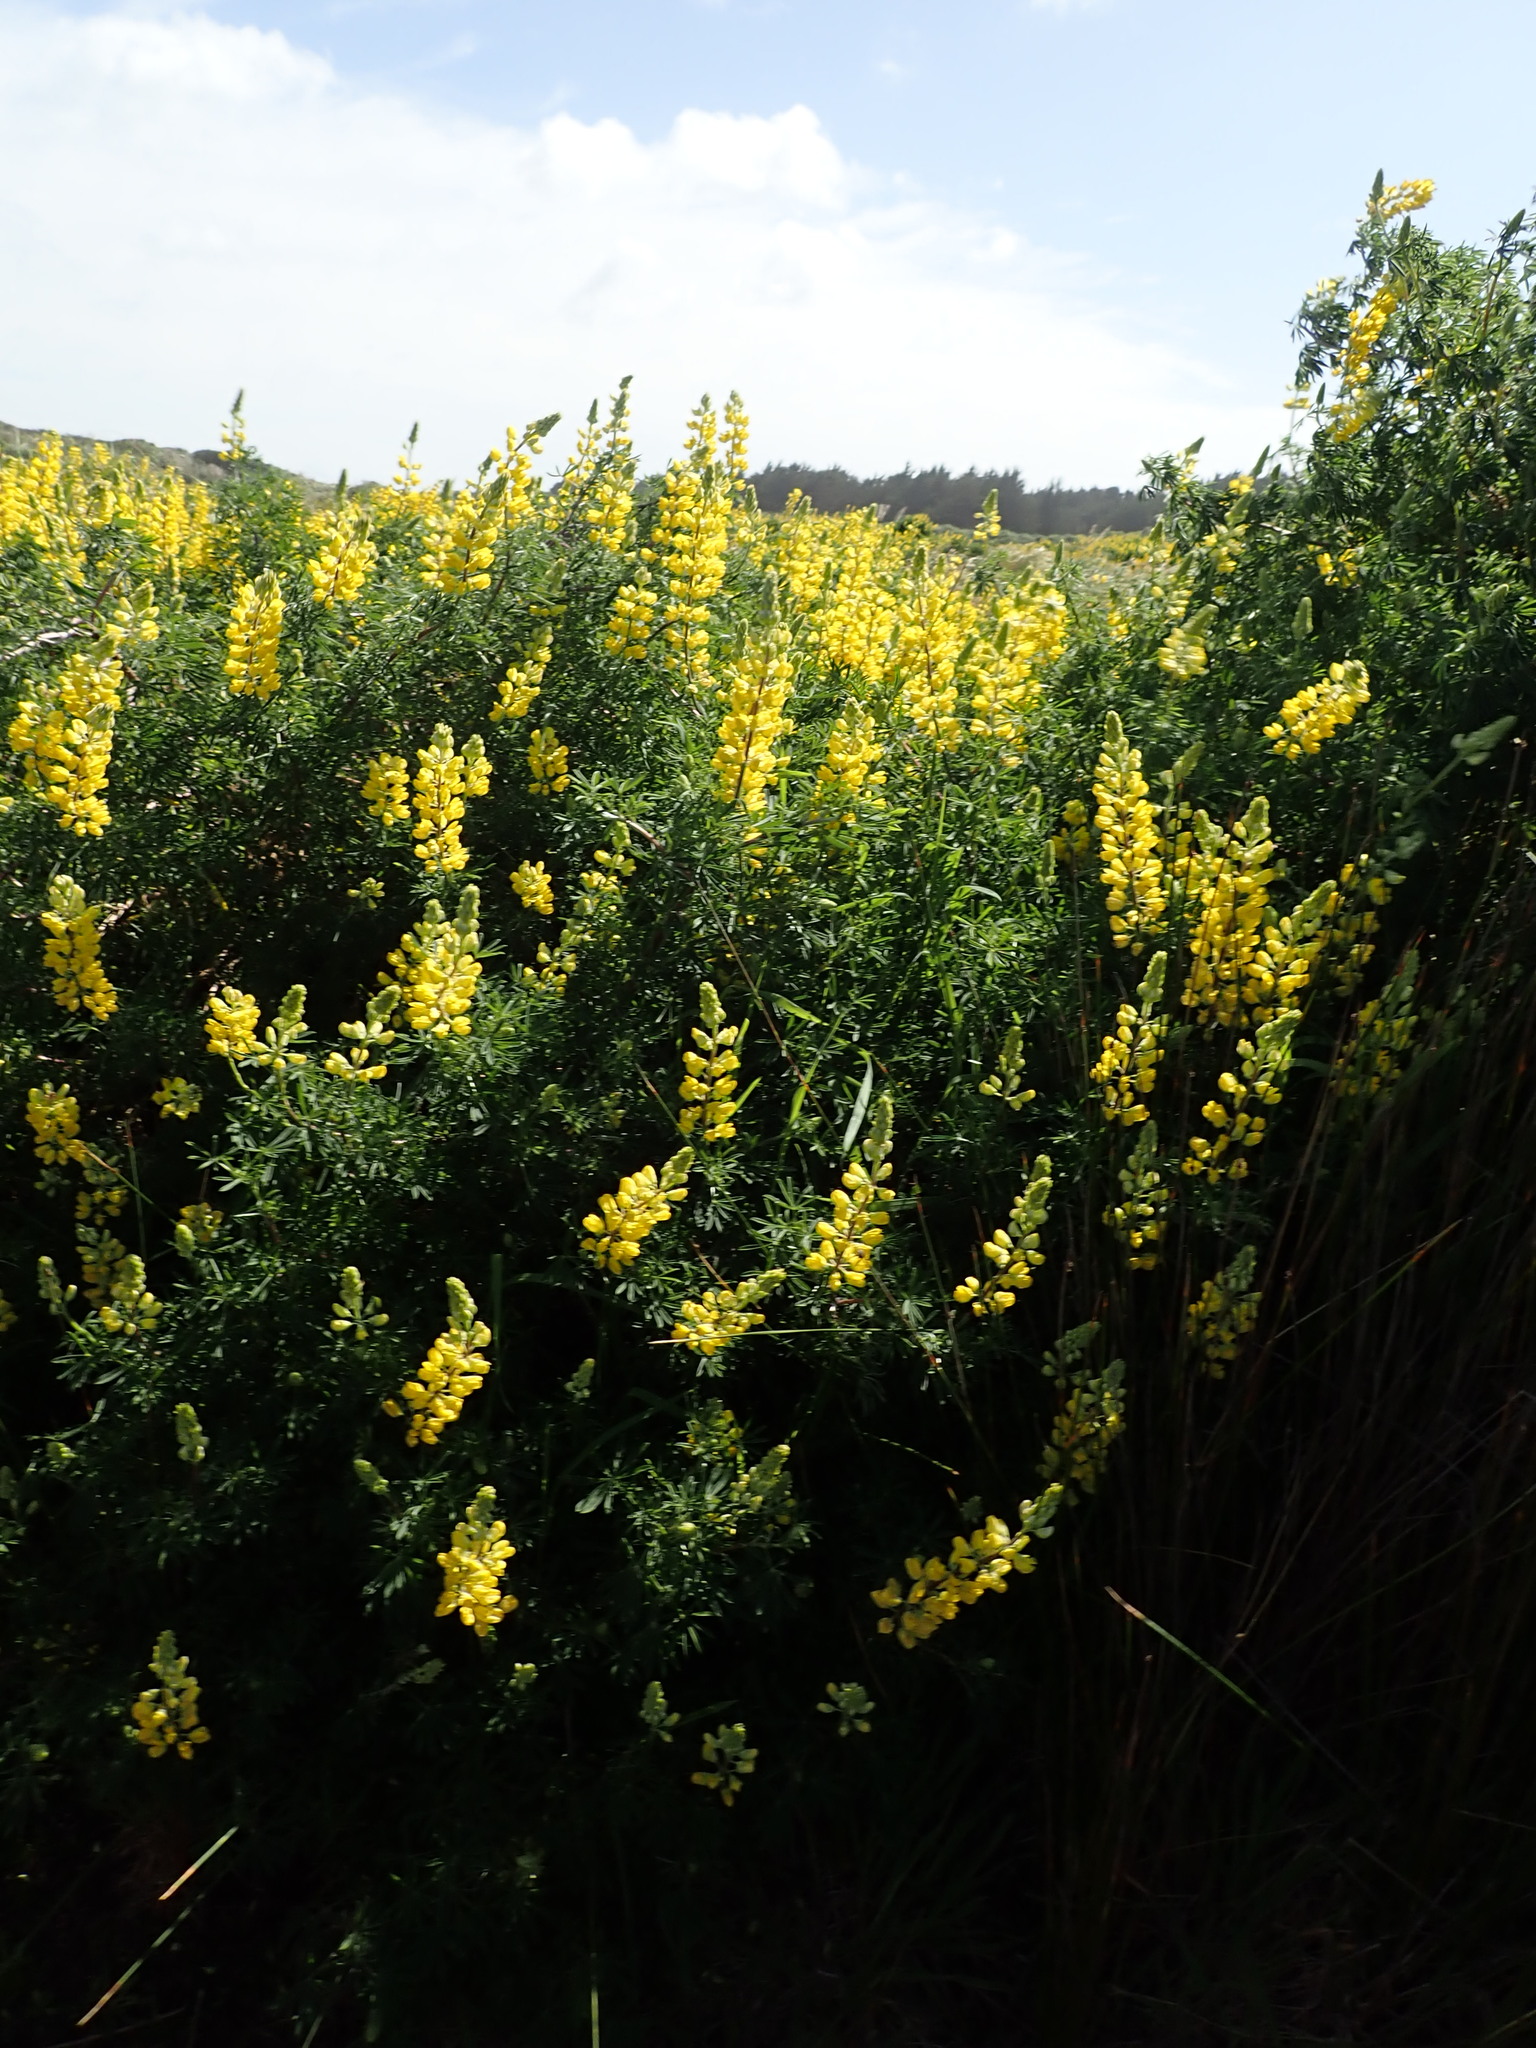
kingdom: Plantae
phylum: Tracheophyta
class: Magnoliopsida
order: Fabales
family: Fabaceae
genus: Lupinus
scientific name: Lupinus arboreus
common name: Yellow bush lupine
